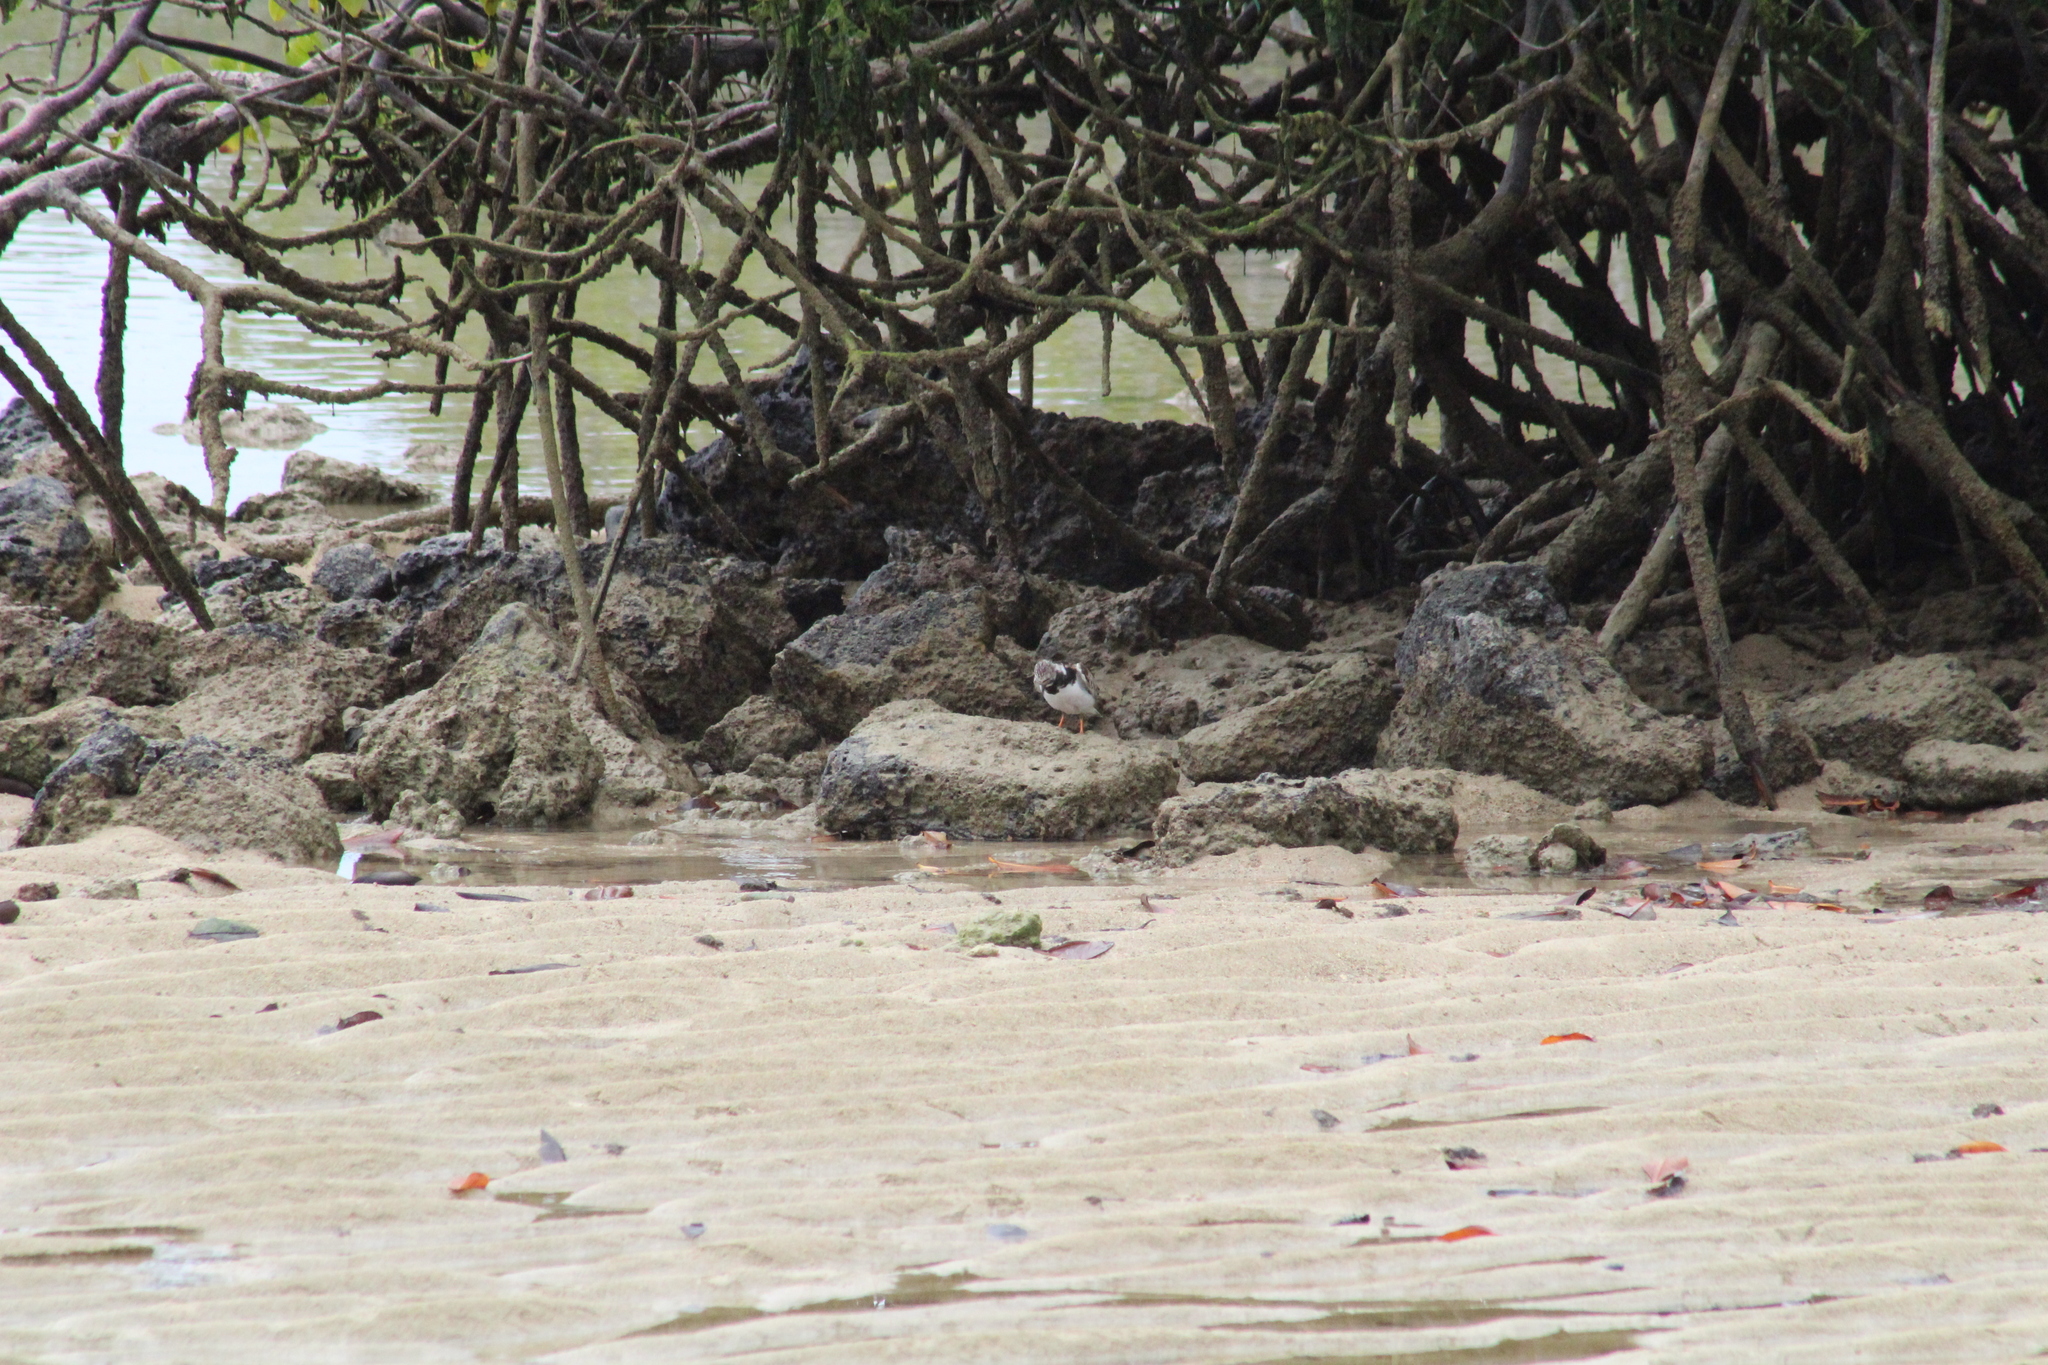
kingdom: Animalia
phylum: Chordata
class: Aves
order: Charadriiformes
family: Scolopacidae
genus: Arenaria
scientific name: Arenaria interpres
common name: Ruddy turnstone
